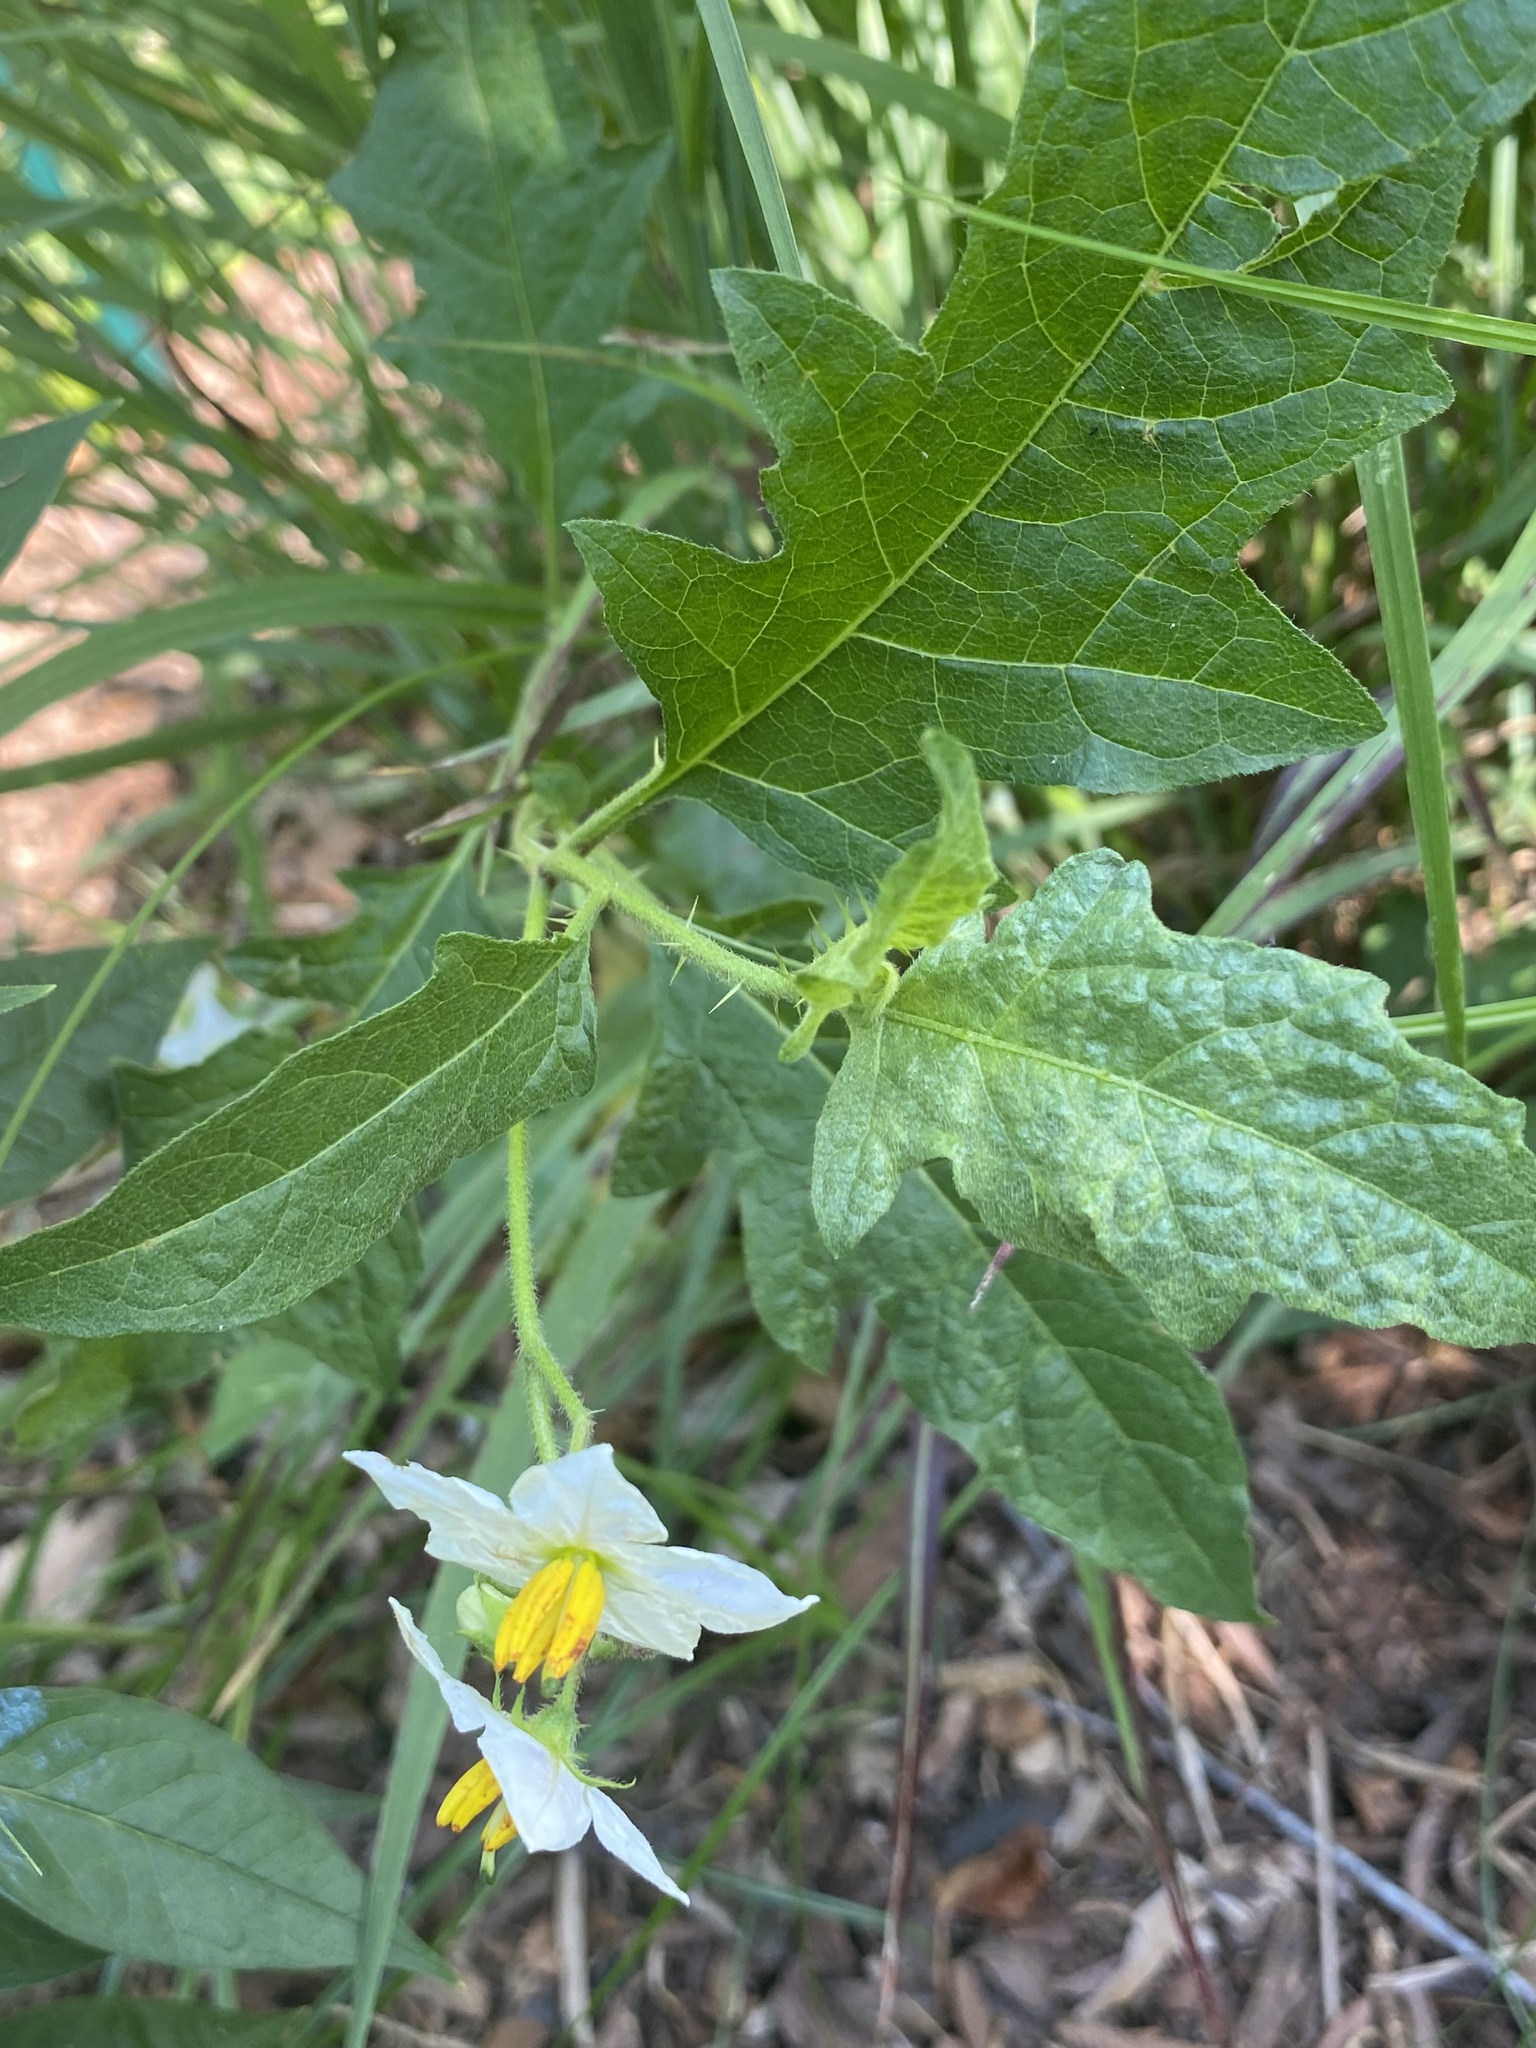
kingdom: Plantae
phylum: Tracheophyta
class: Magnoliopsida
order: Solanales
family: Solanaceae
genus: Solanum
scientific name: Solanum carolinense
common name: Horse-nettle
